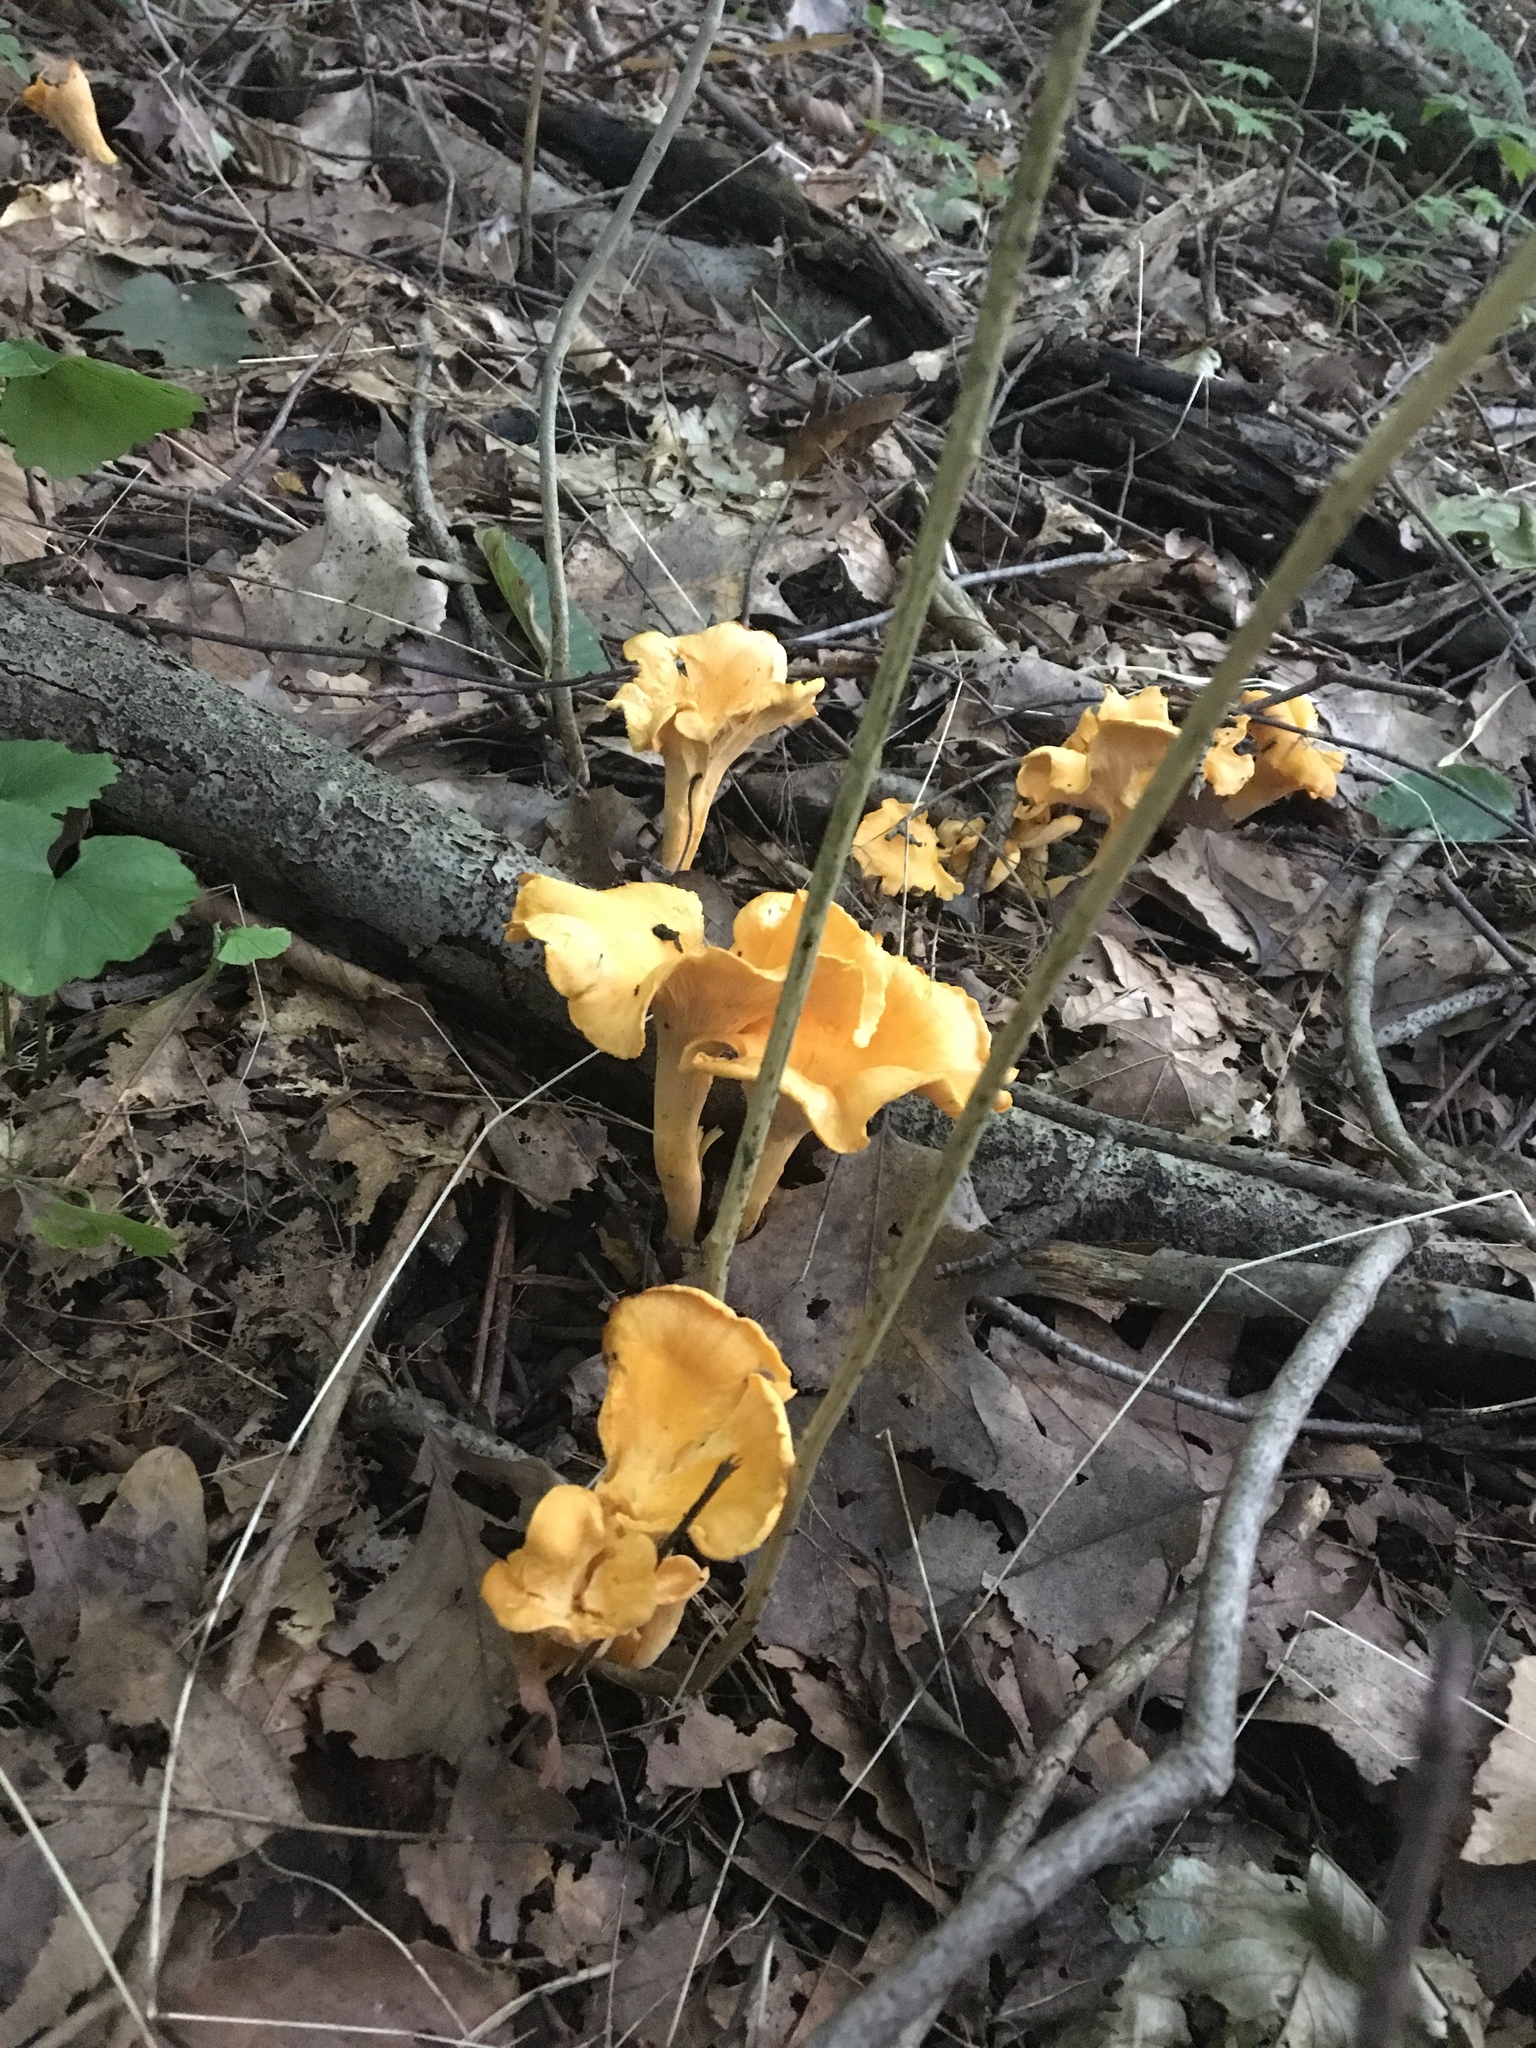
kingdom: Fungi
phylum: Basidiomycota
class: Agaricomycetes
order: Cantharellales
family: Hydnaceae
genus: Cantharellus
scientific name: Cantharellus lateritius
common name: Smooth chanterelle
